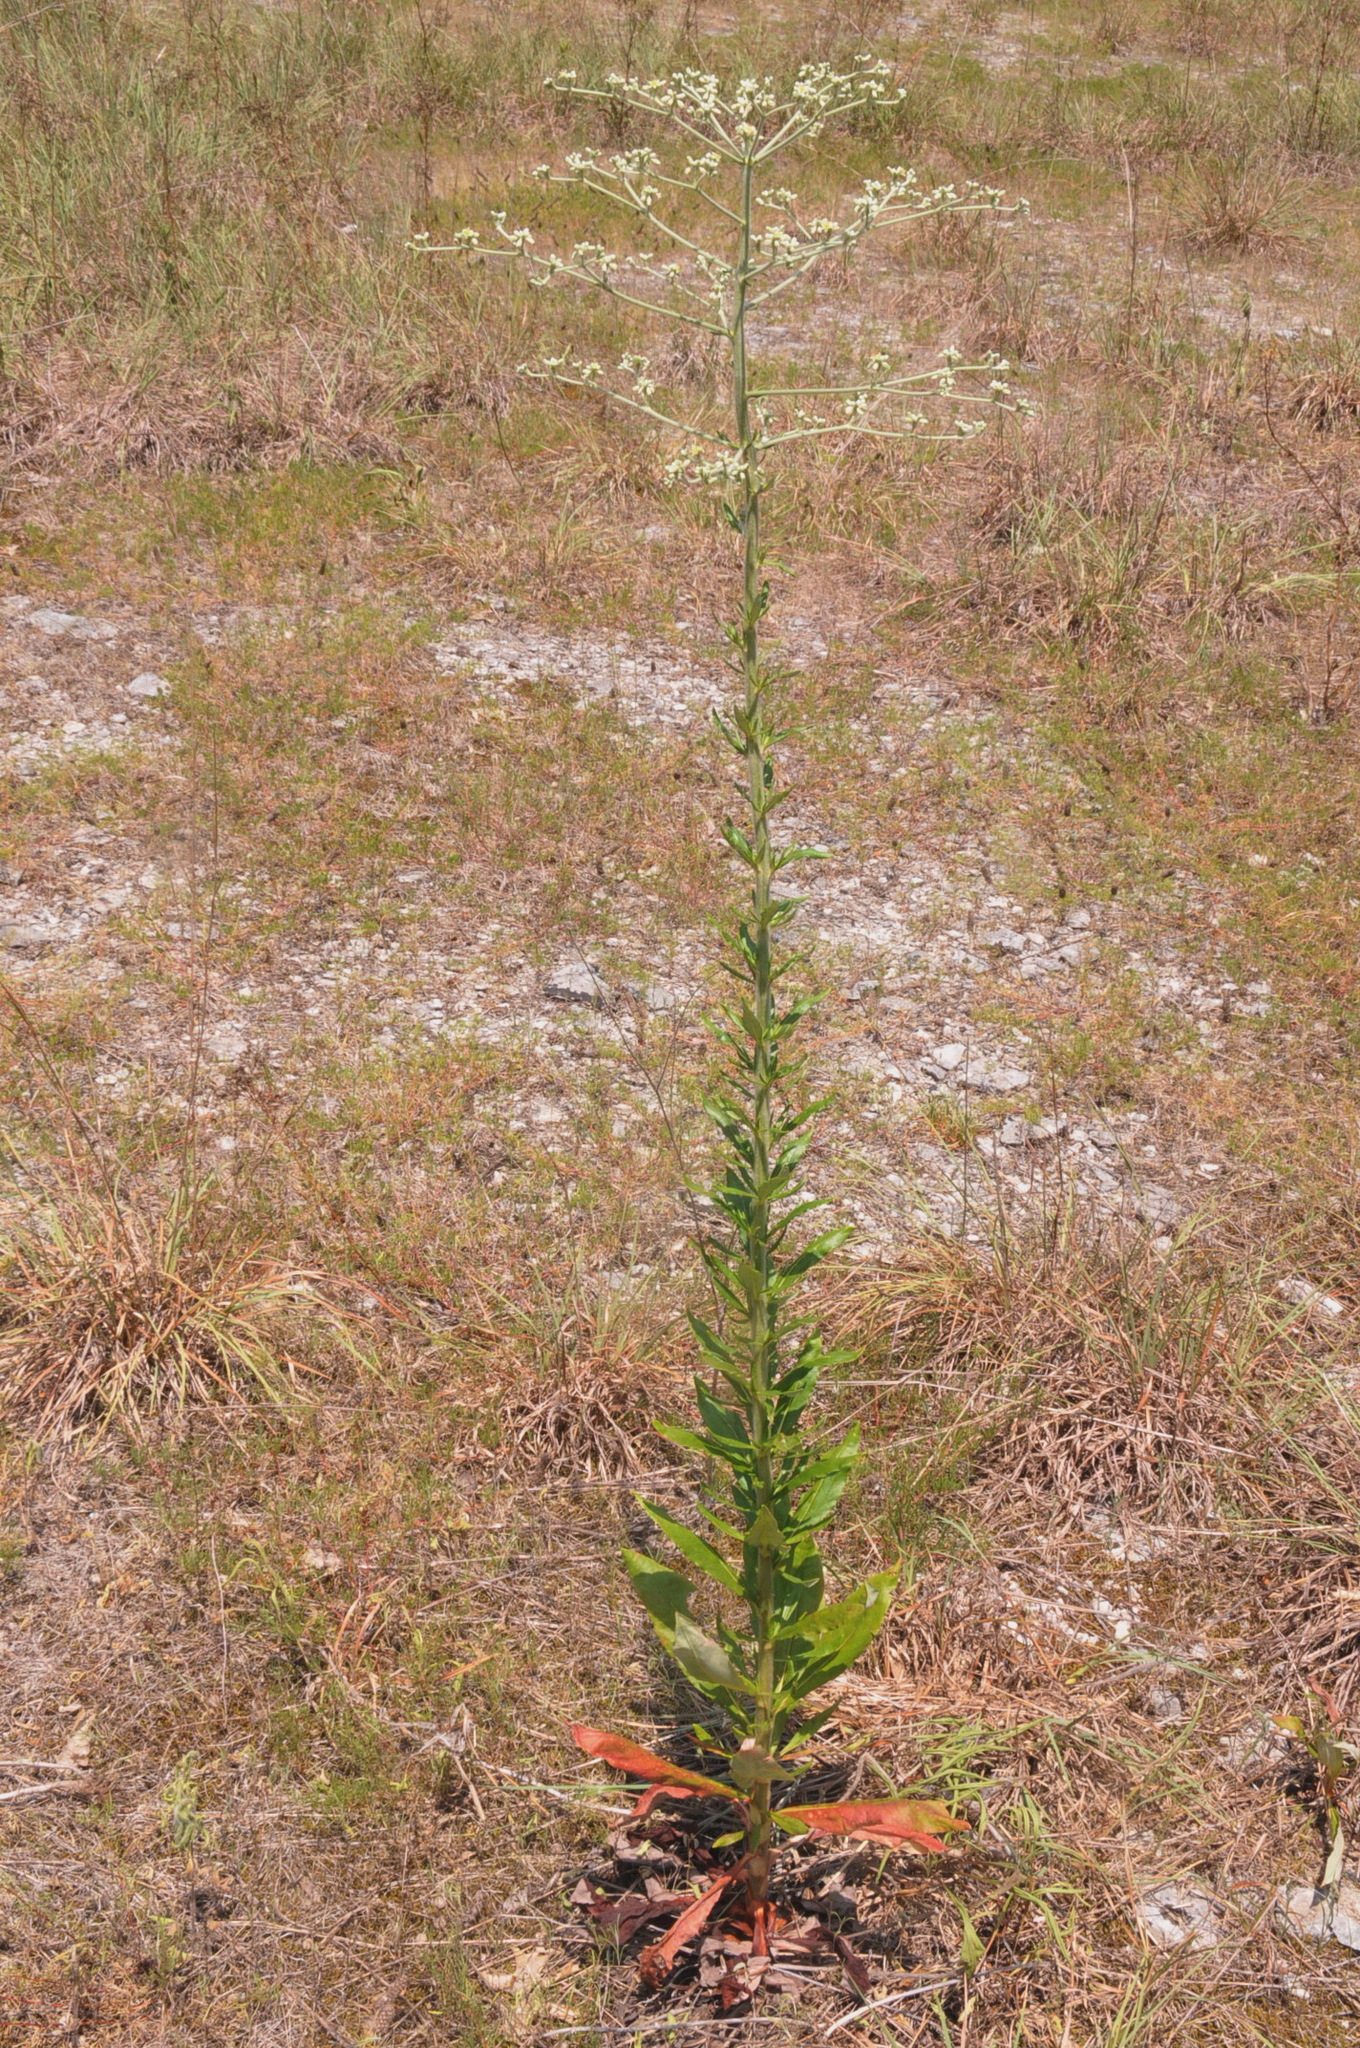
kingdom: Plantae
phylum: Tracheophyta
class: Magnoliopsida
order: Caryophyllales
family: Polygonaceae
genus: Eriogonum
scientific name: Eriogonum longifolium
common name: Longleaf wild buckwheat
